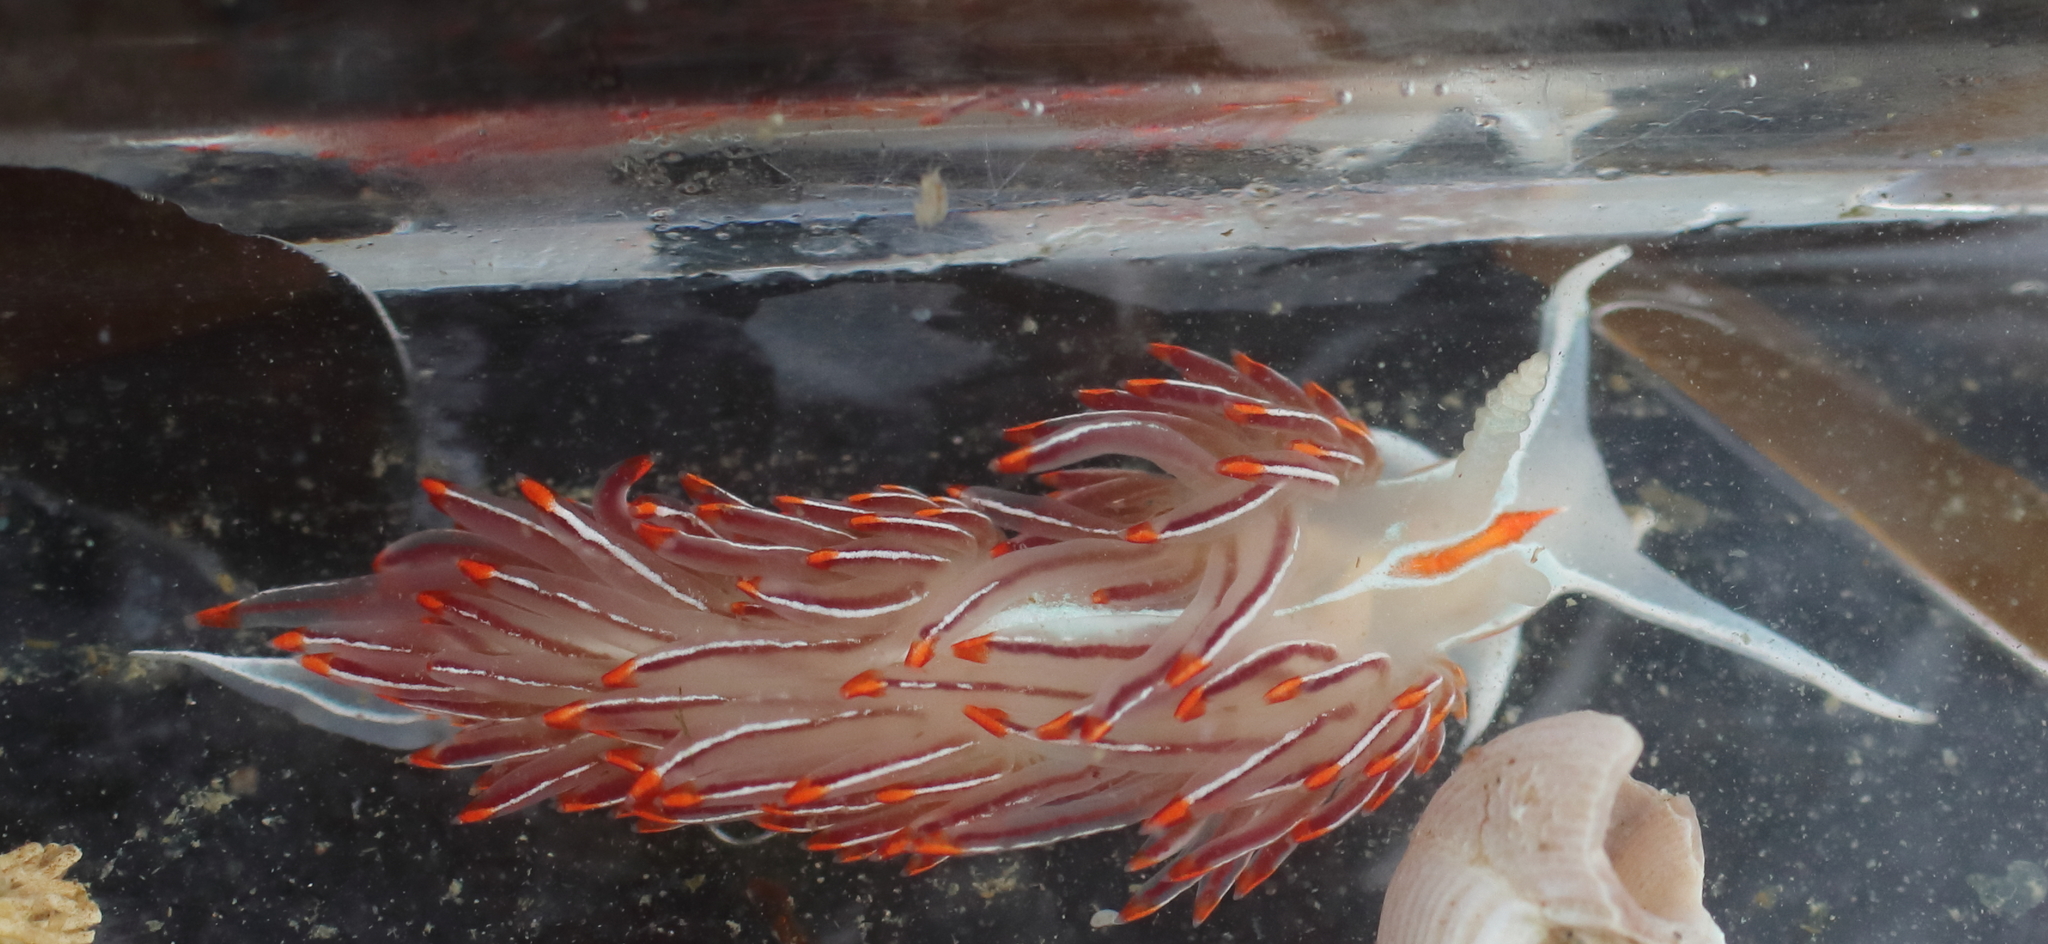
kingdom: Animalia
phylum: Mollusca
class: Gastropoda
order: Nudibranchia
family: Myrrhinidae
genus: Hermissenda
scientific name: Hermissenda crassicornis
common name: Hermissenda
